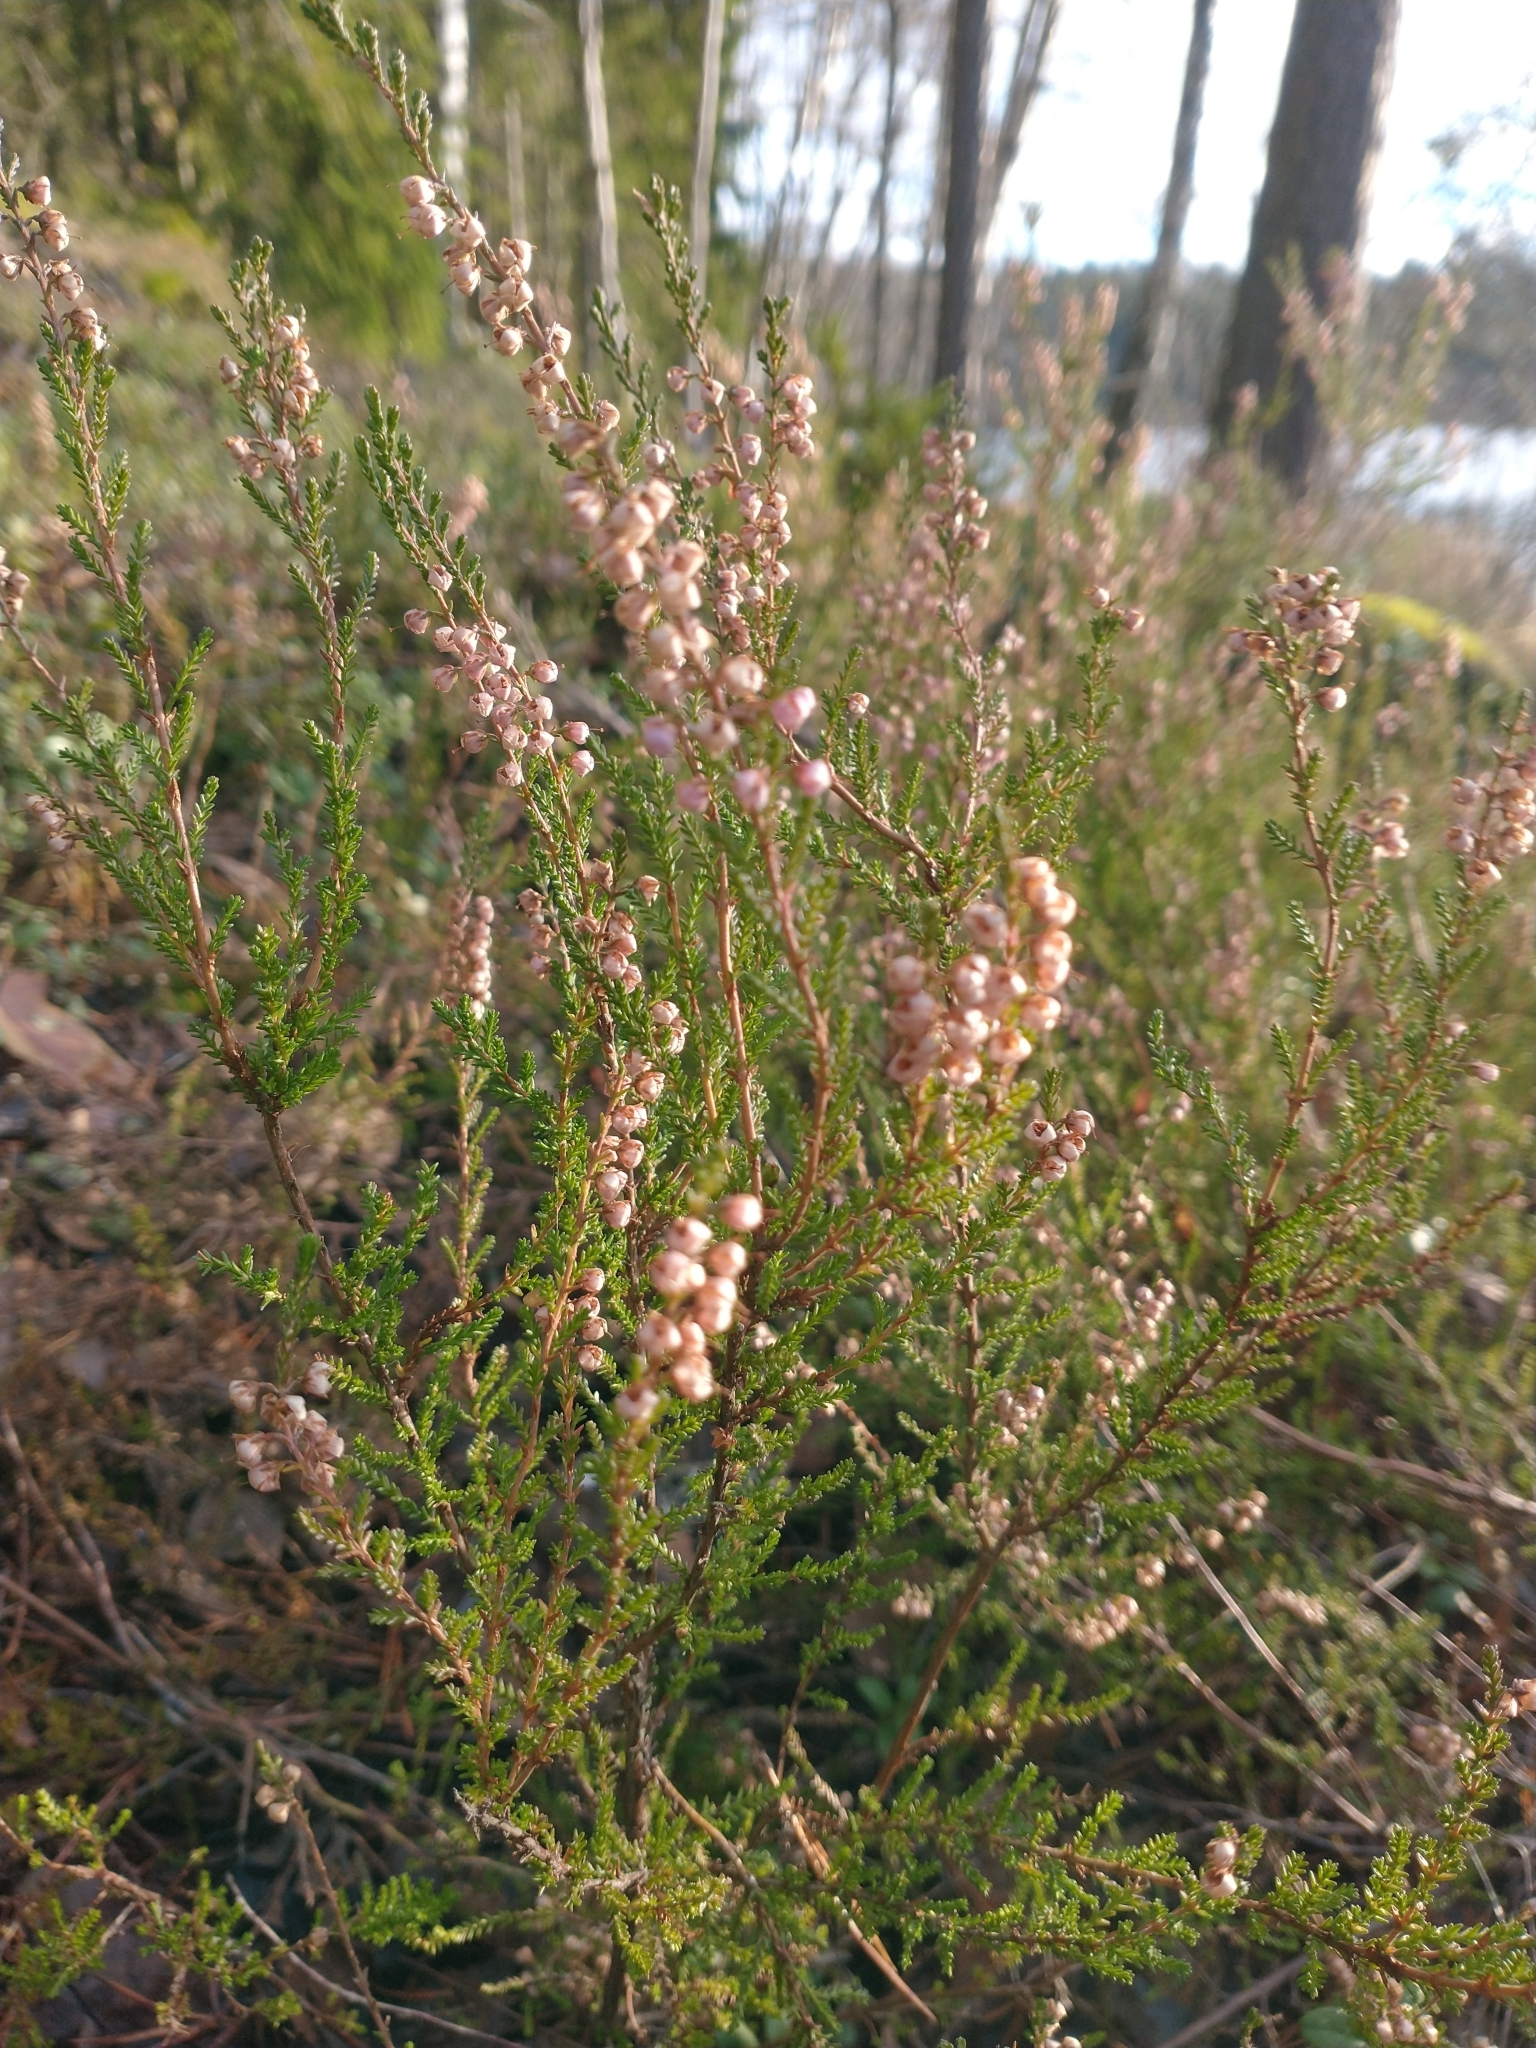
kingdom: Plantae
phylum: Tracheophyta
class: Magnoliopsida
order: Ericales
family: Ericaceae
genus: Calluna
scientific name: Calluna vulgaris
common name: Heather
